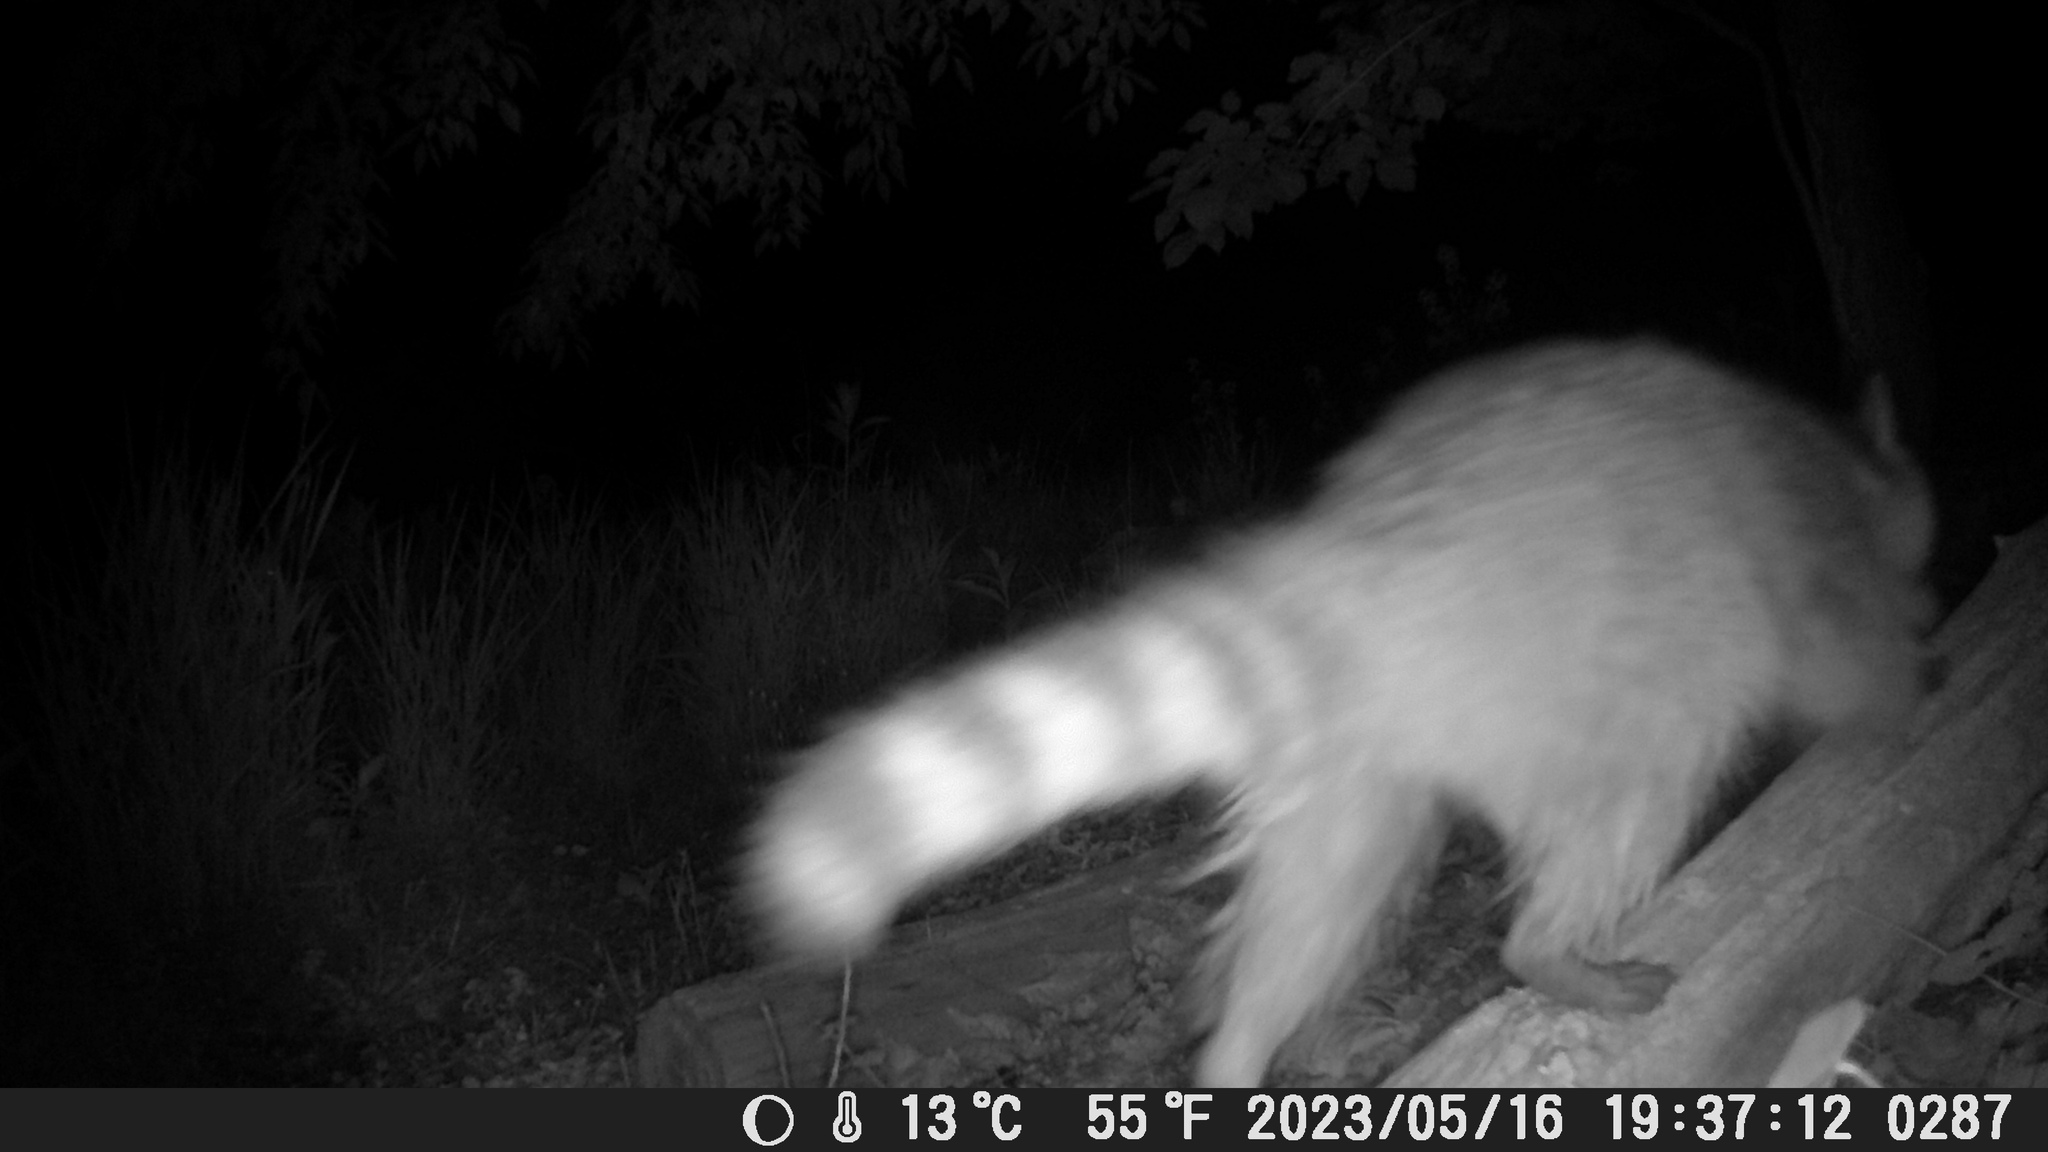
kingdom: Animalia
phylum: Chordata
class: Mammalia
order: Carnivora
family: Procyonidae
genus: Procyon
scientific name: Procyon lotor
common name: Raccoon
